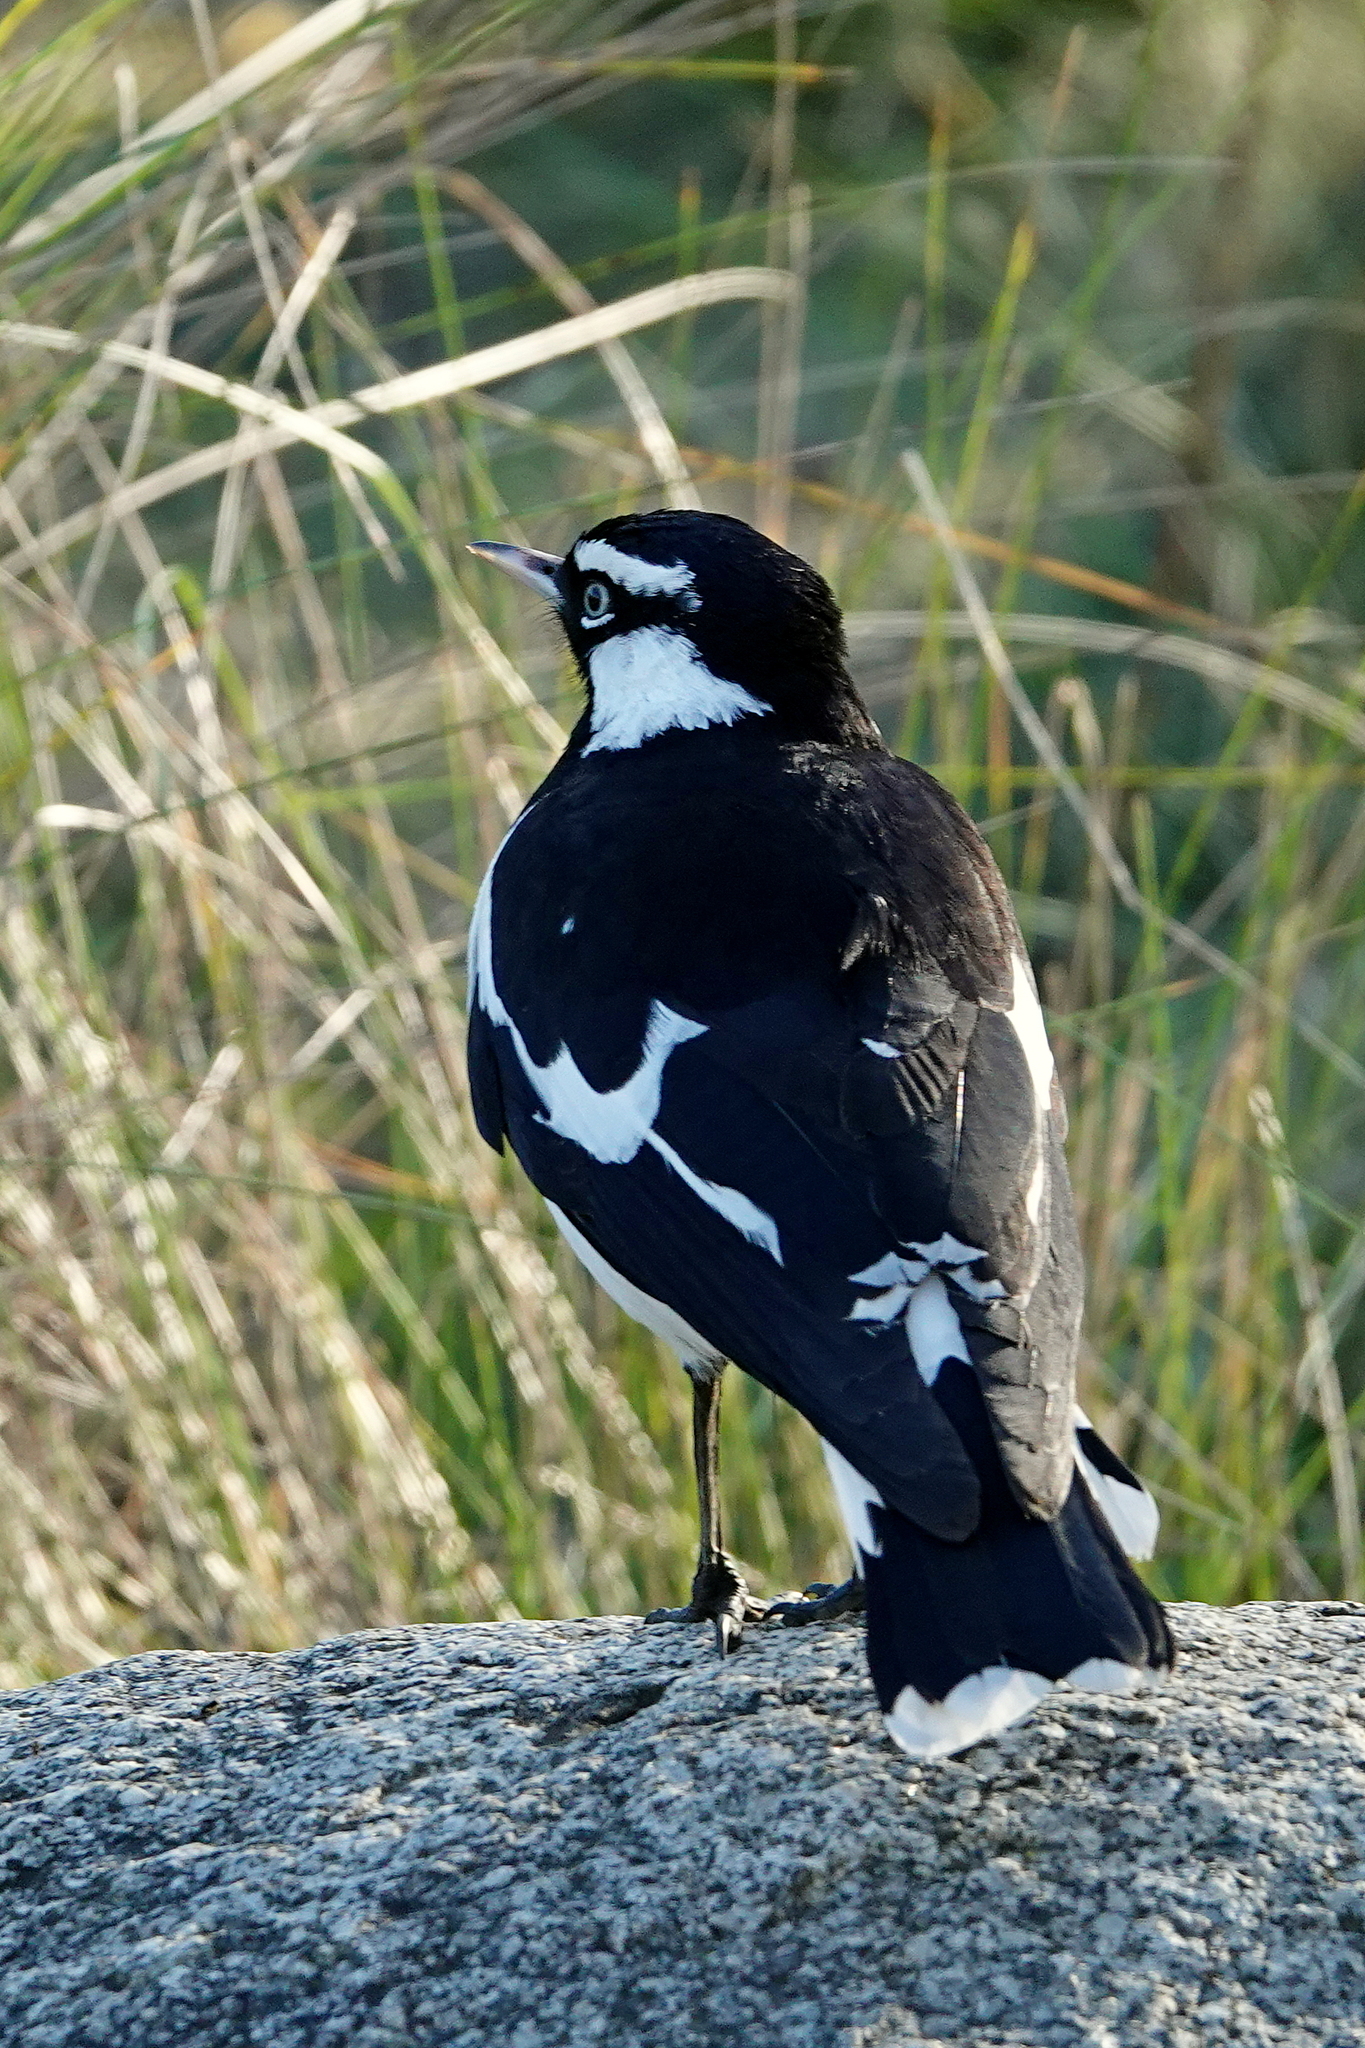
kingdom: Animalia
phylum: Chordata
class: Aves
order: Passeriformes
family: Monarchidae
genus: Grallina
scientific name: Grallina cyanoleuca
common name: Magpie-lark
